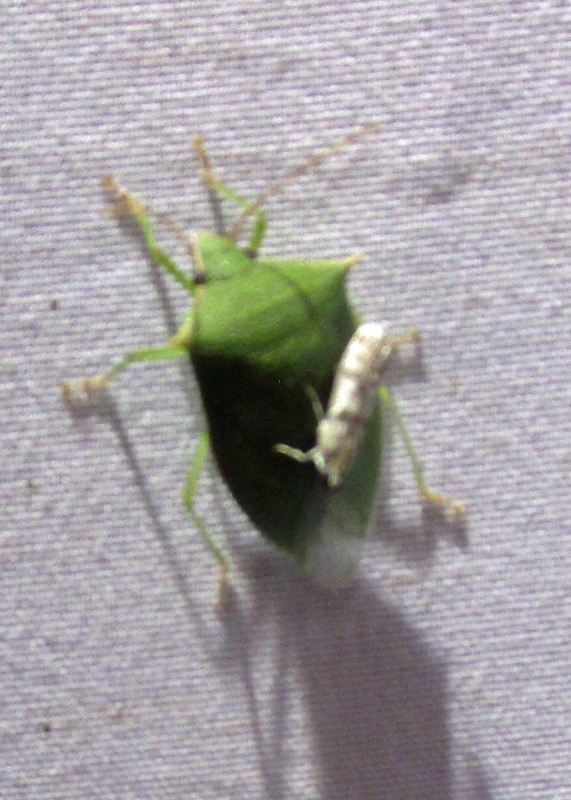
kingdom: Animalia
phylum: Arthropoda
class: Insecta
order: Hemiptera
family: Pentatomidae
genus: Loxa
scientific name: Loxa viridis
